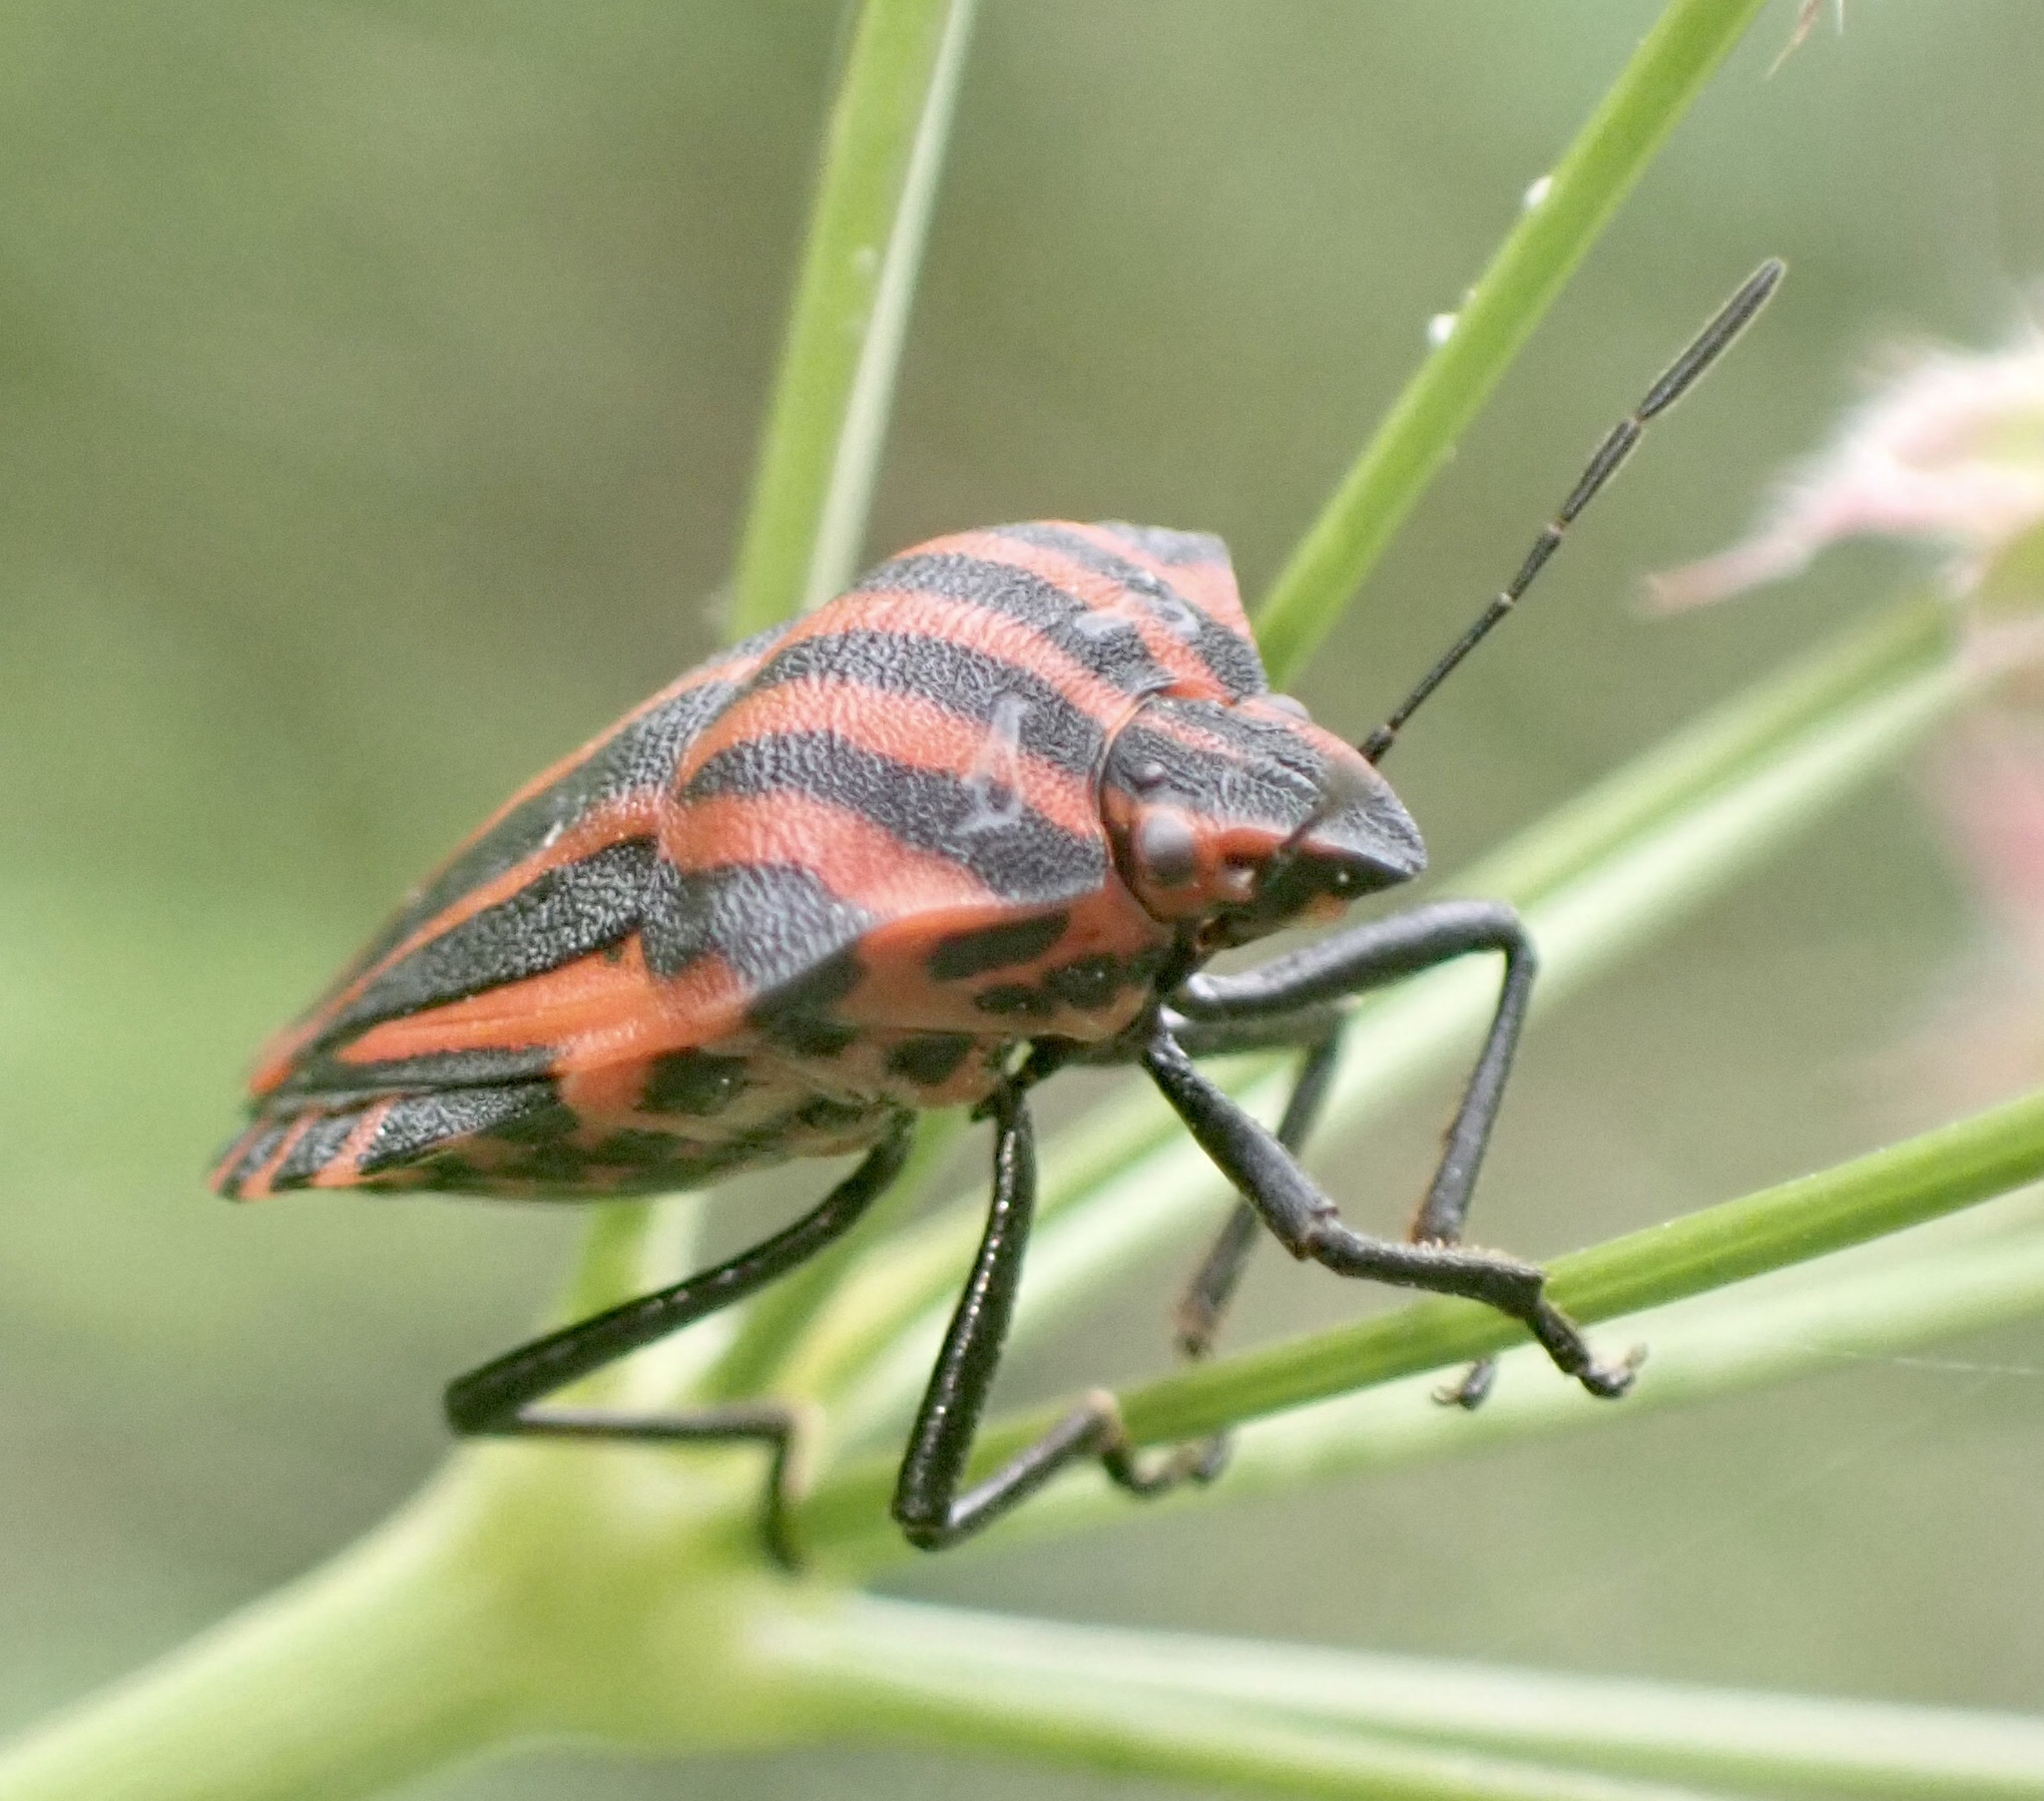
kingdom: Animalia
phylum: Arthropoda
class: Insecta
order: Hemiptera
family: Pentatomidae
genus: Graphosoma
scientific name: Graphosoma italicum
